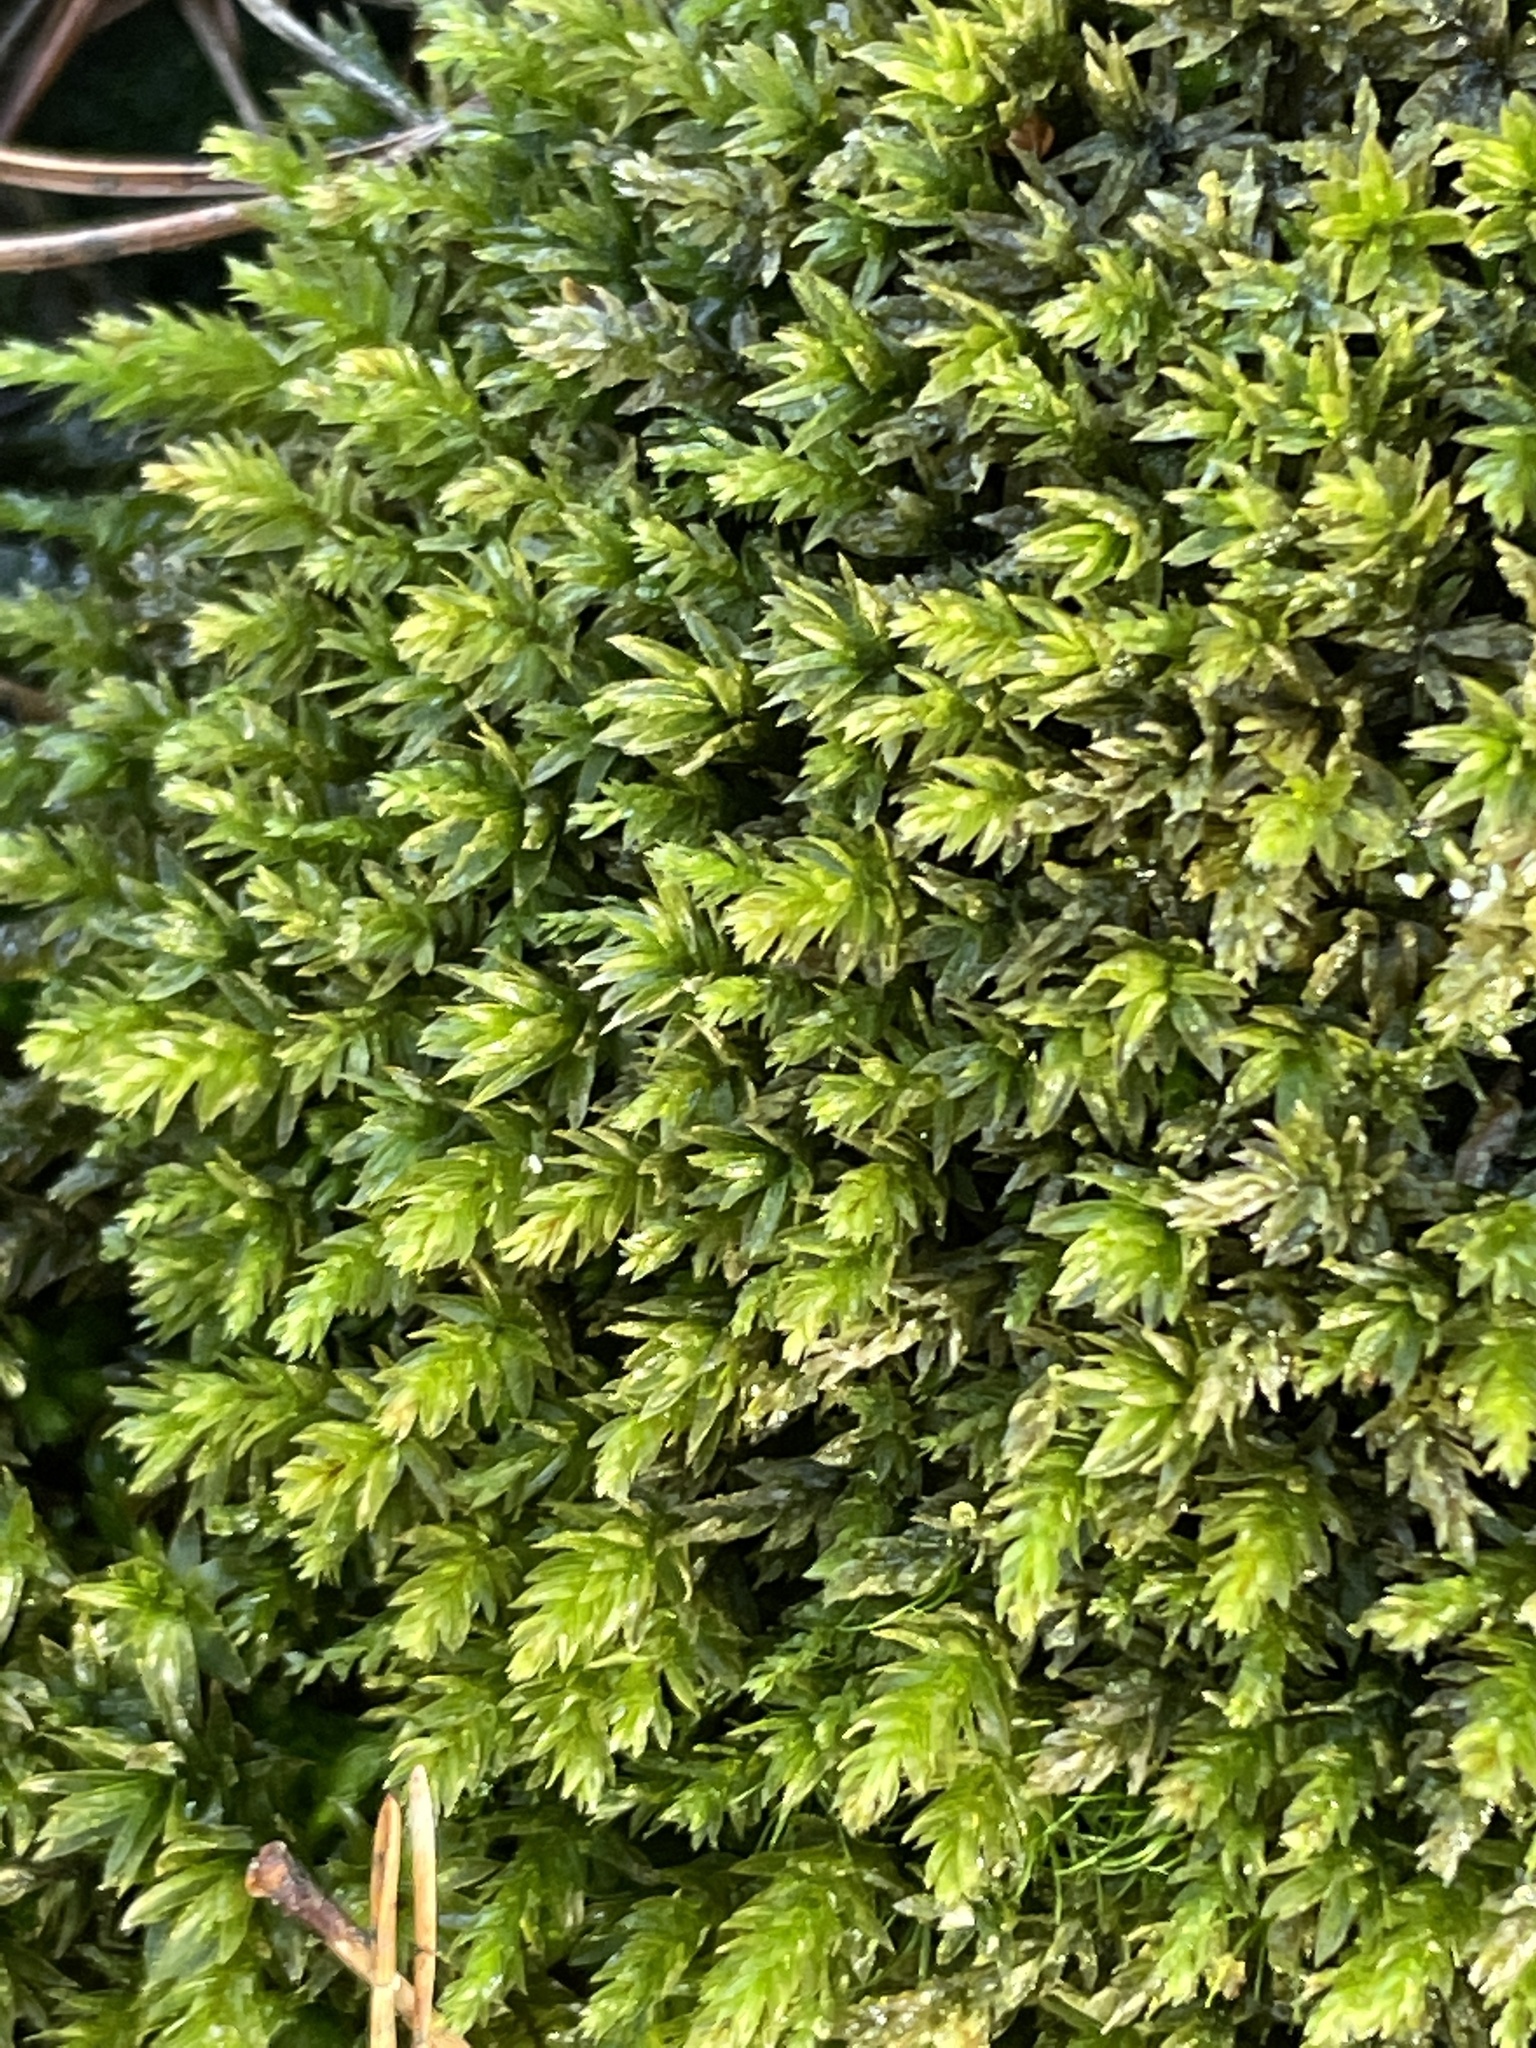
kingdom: Plantae
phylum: Bryophyta
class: Bryopsida
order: Bryales
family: Mniaceae
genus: Mnium
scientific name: Mnium hornum
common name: Swan's-neck leafy moss
